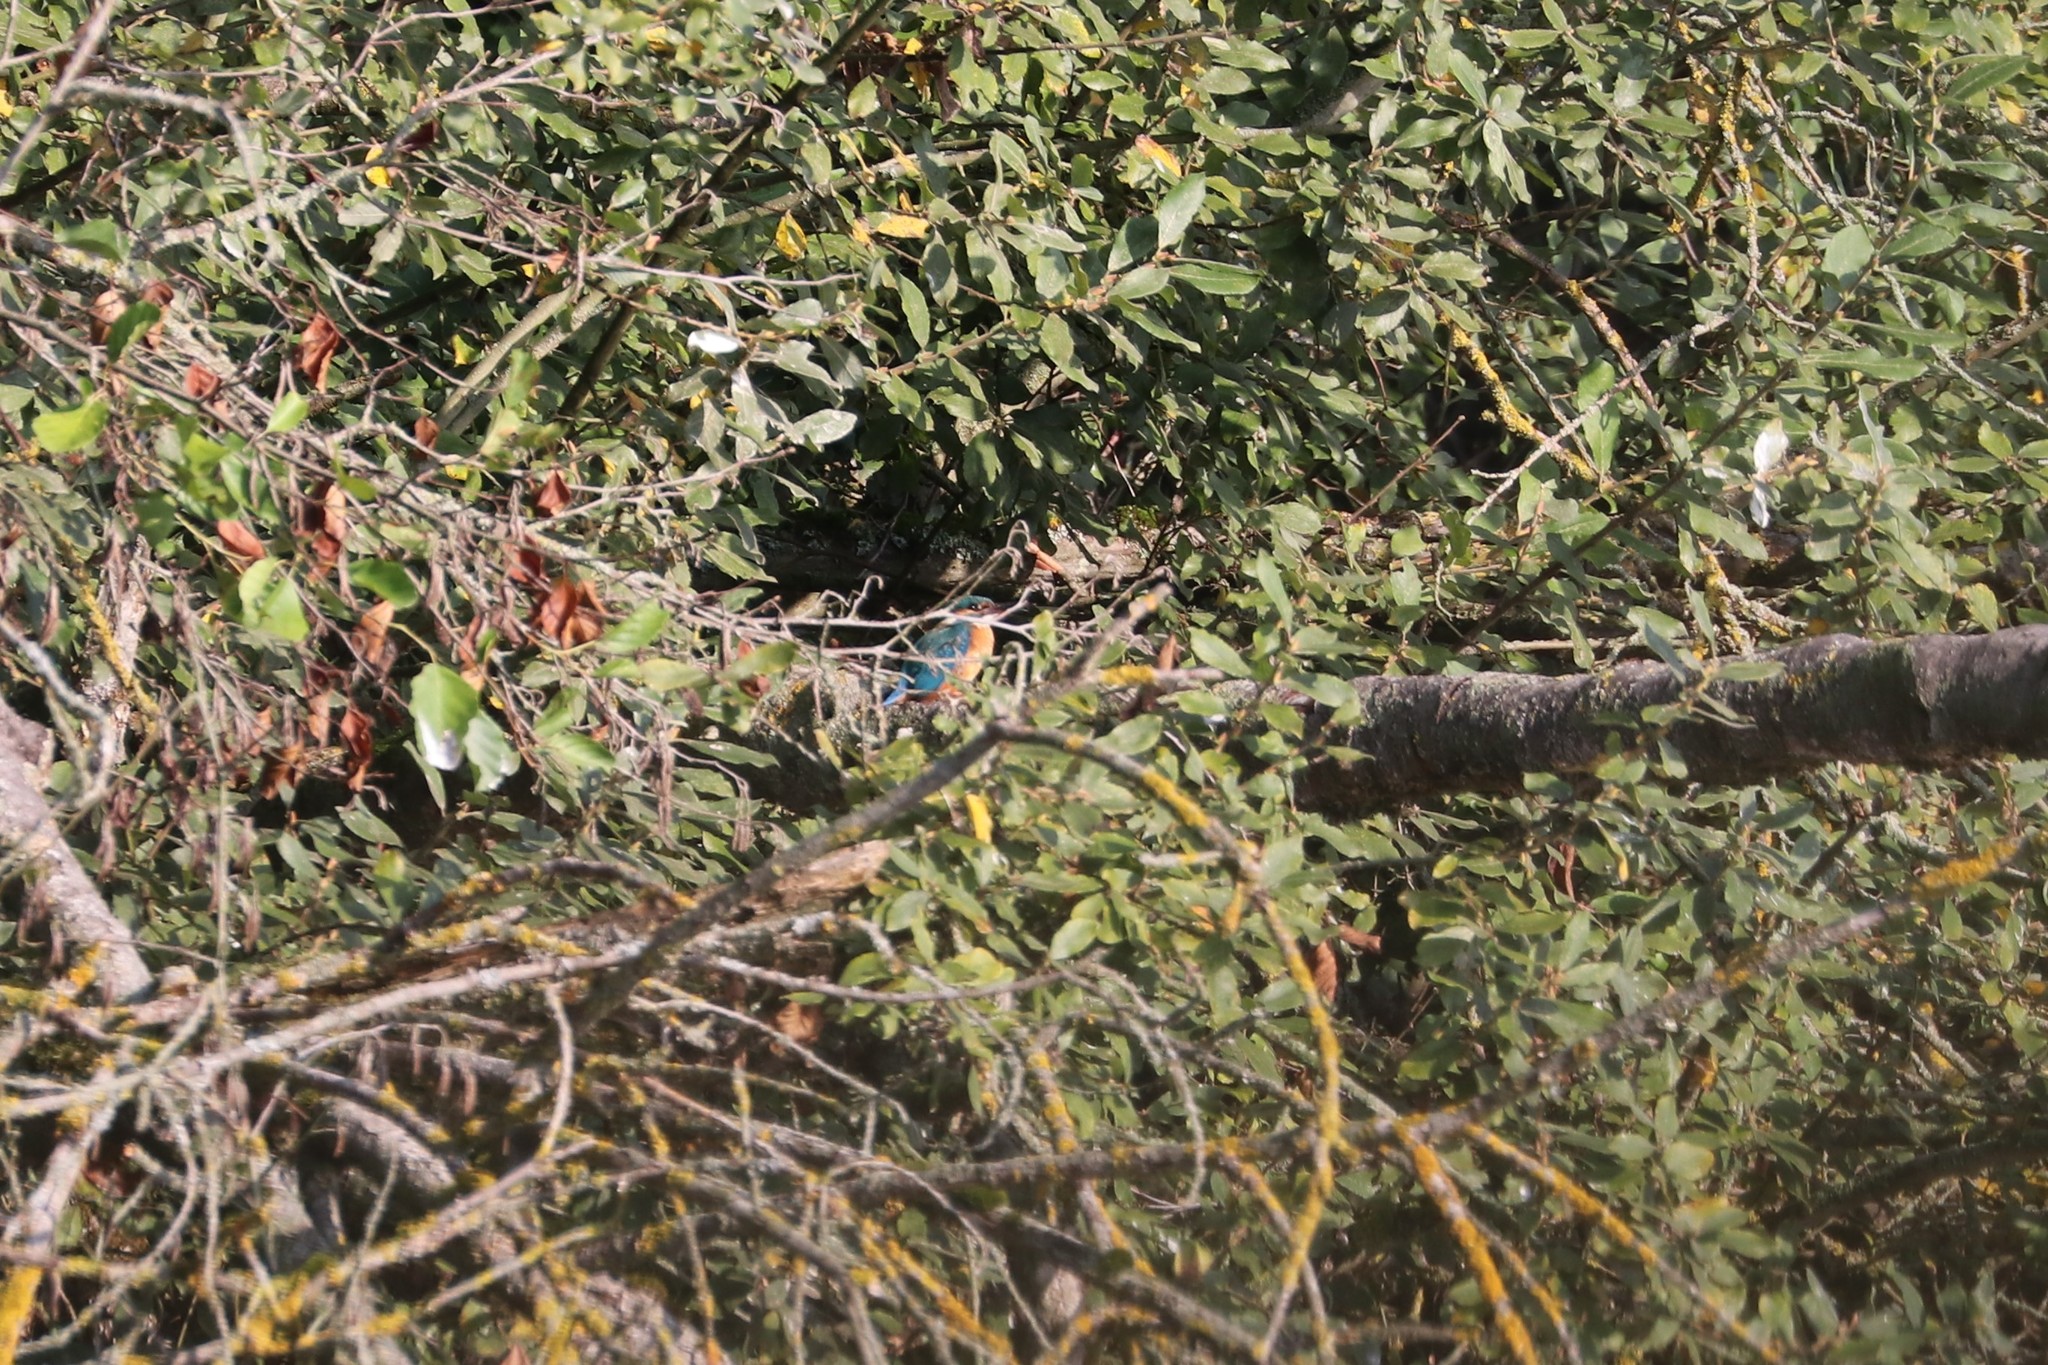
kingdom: Animalia
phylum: Chordata
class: Aves
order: Coraciiformes
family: Alcedinidae
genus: Alcedo
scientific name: Alcedo atthis
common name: Common kingfisher
